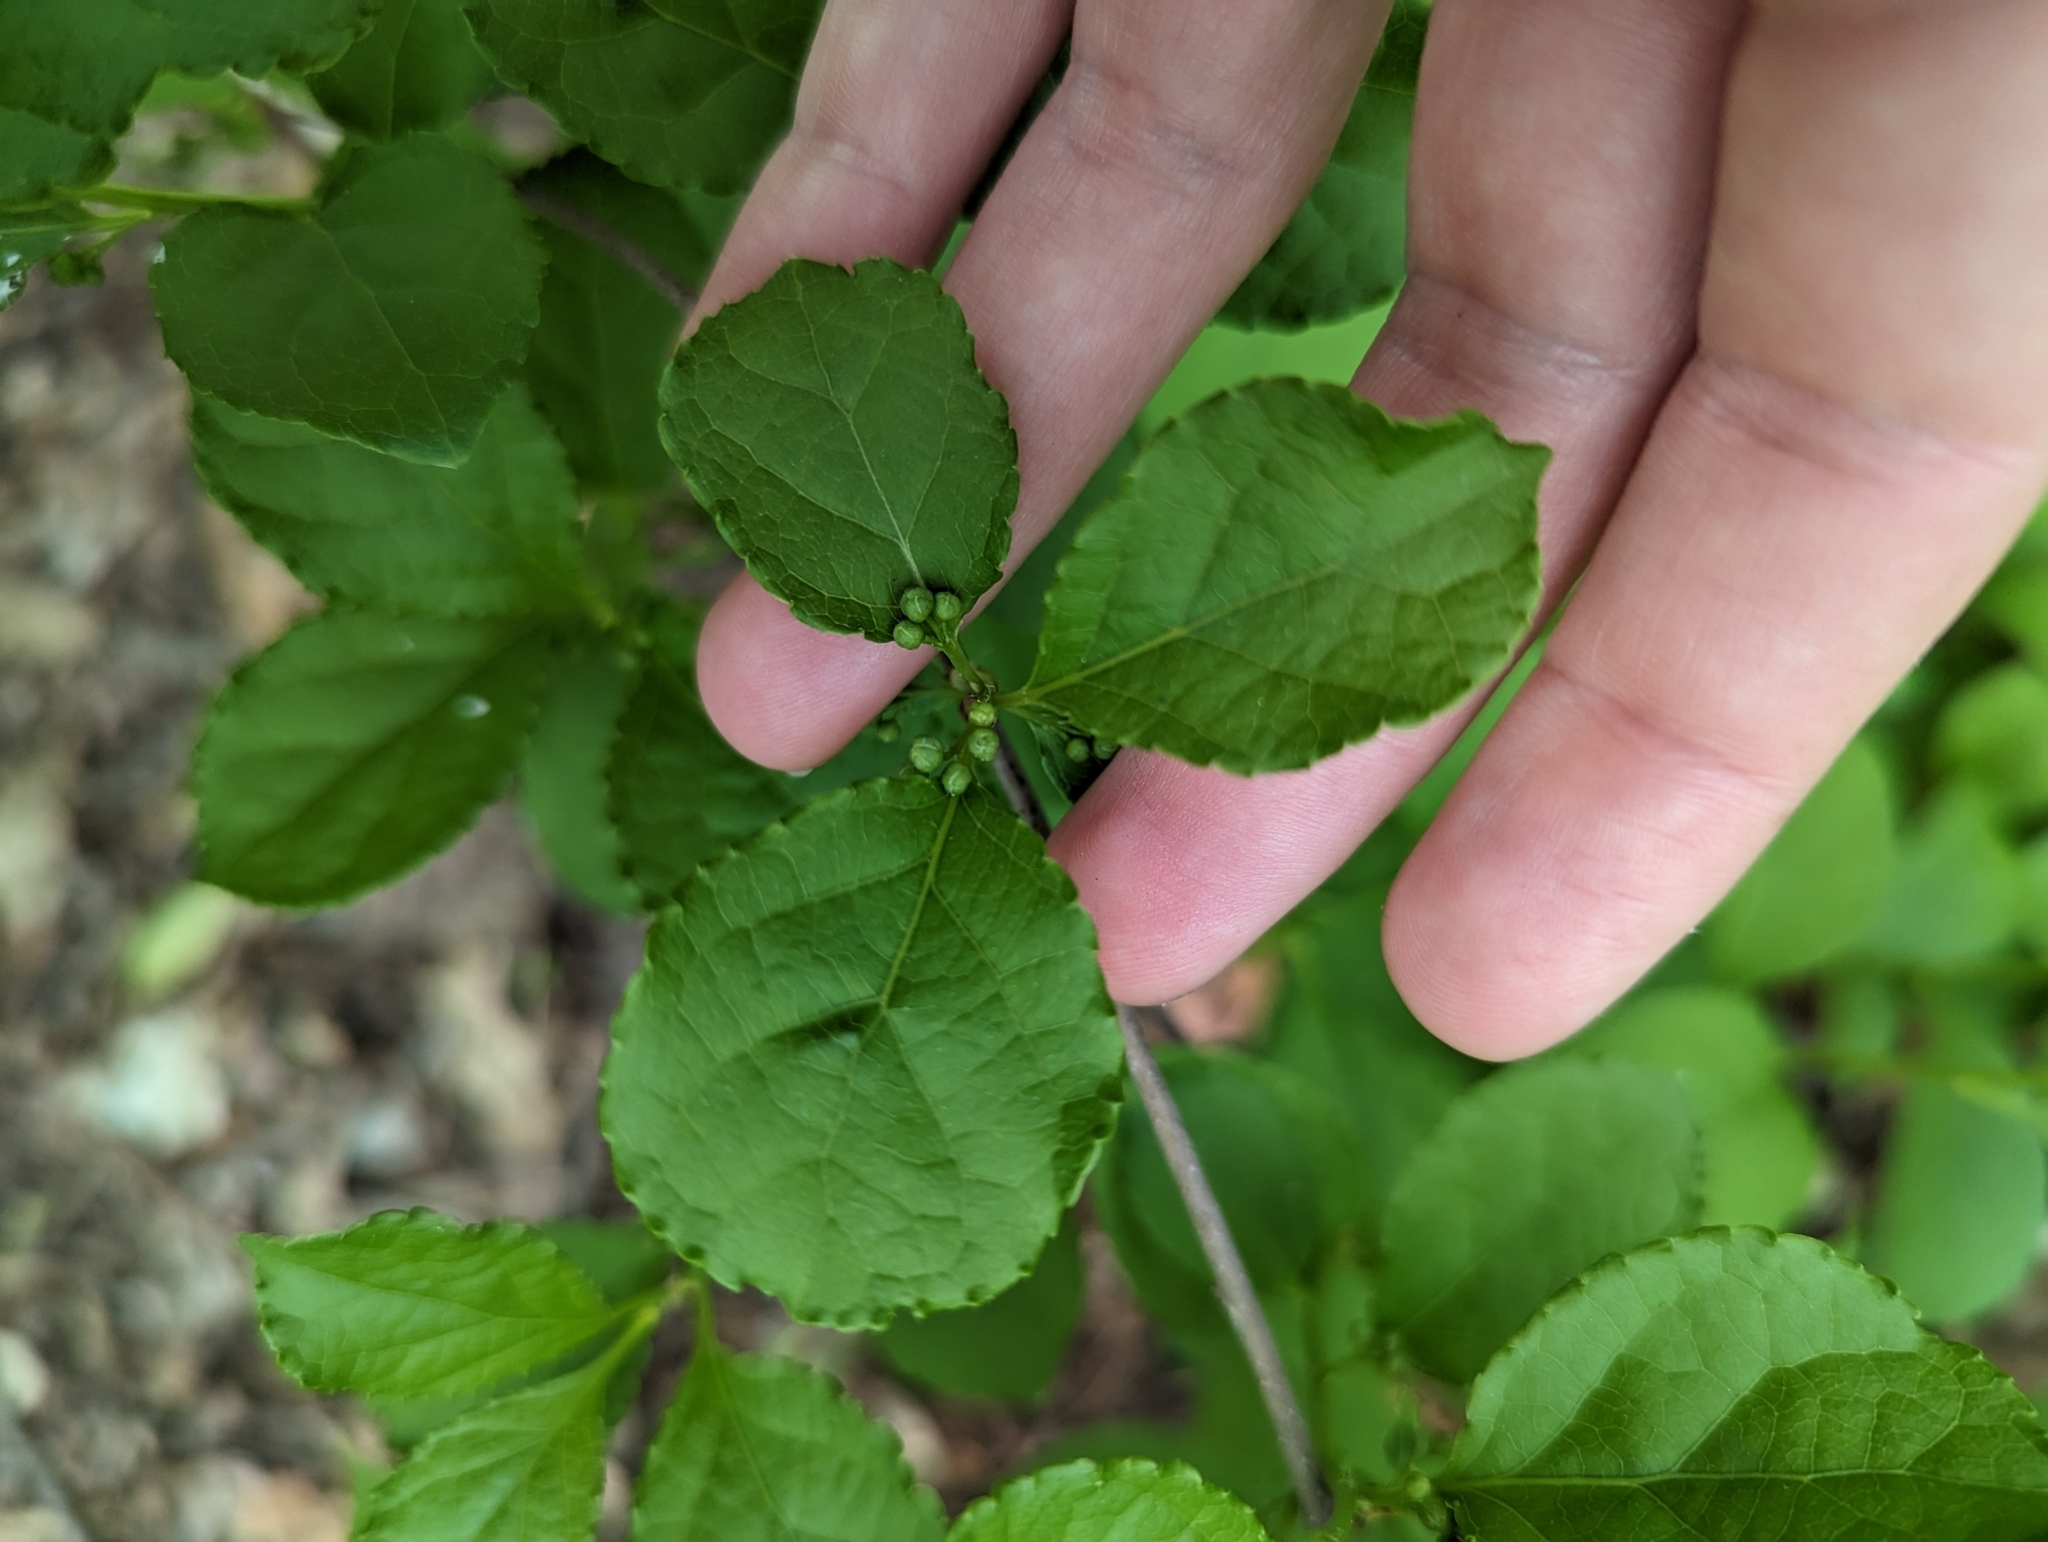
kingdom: Plantae
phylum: Tracheophyta
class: Magnoliopsida
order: Celastrales
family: Celastraceae
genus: Celastrus
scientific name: Celastrus orbiculatus
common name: Oriental bittersweet
